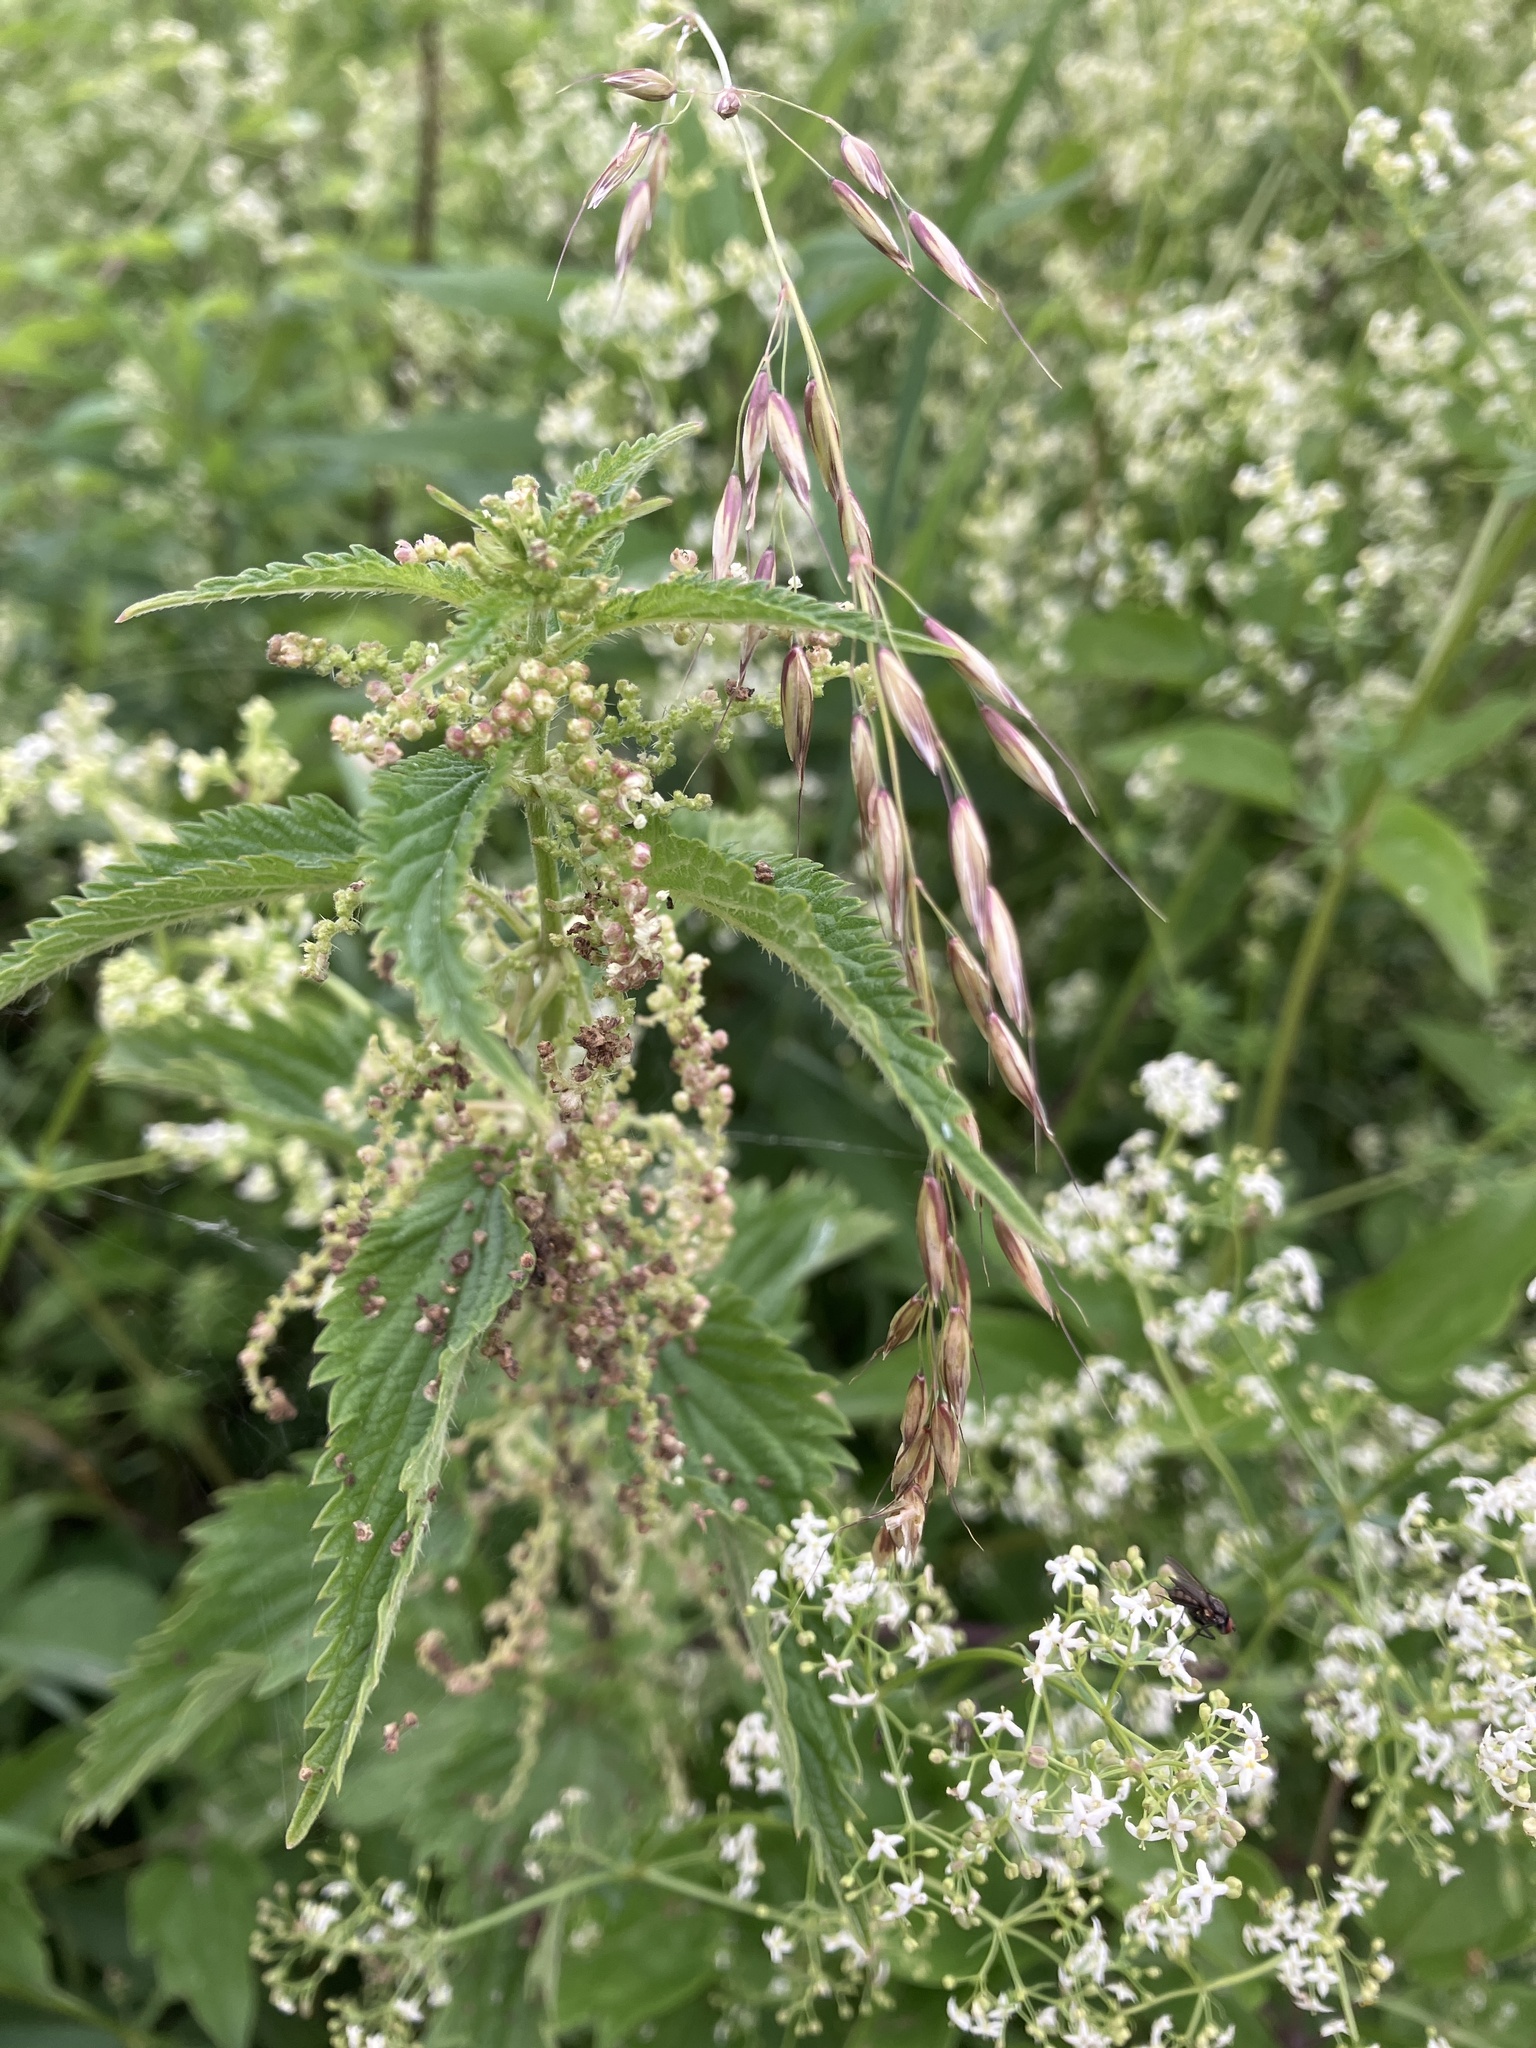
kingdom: Plantae
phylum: Tracheophyta
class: Magnoliopsida
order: Rosales
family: Urticaceae
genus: Urtica
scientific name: Urtica dioica
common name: Common nettle
